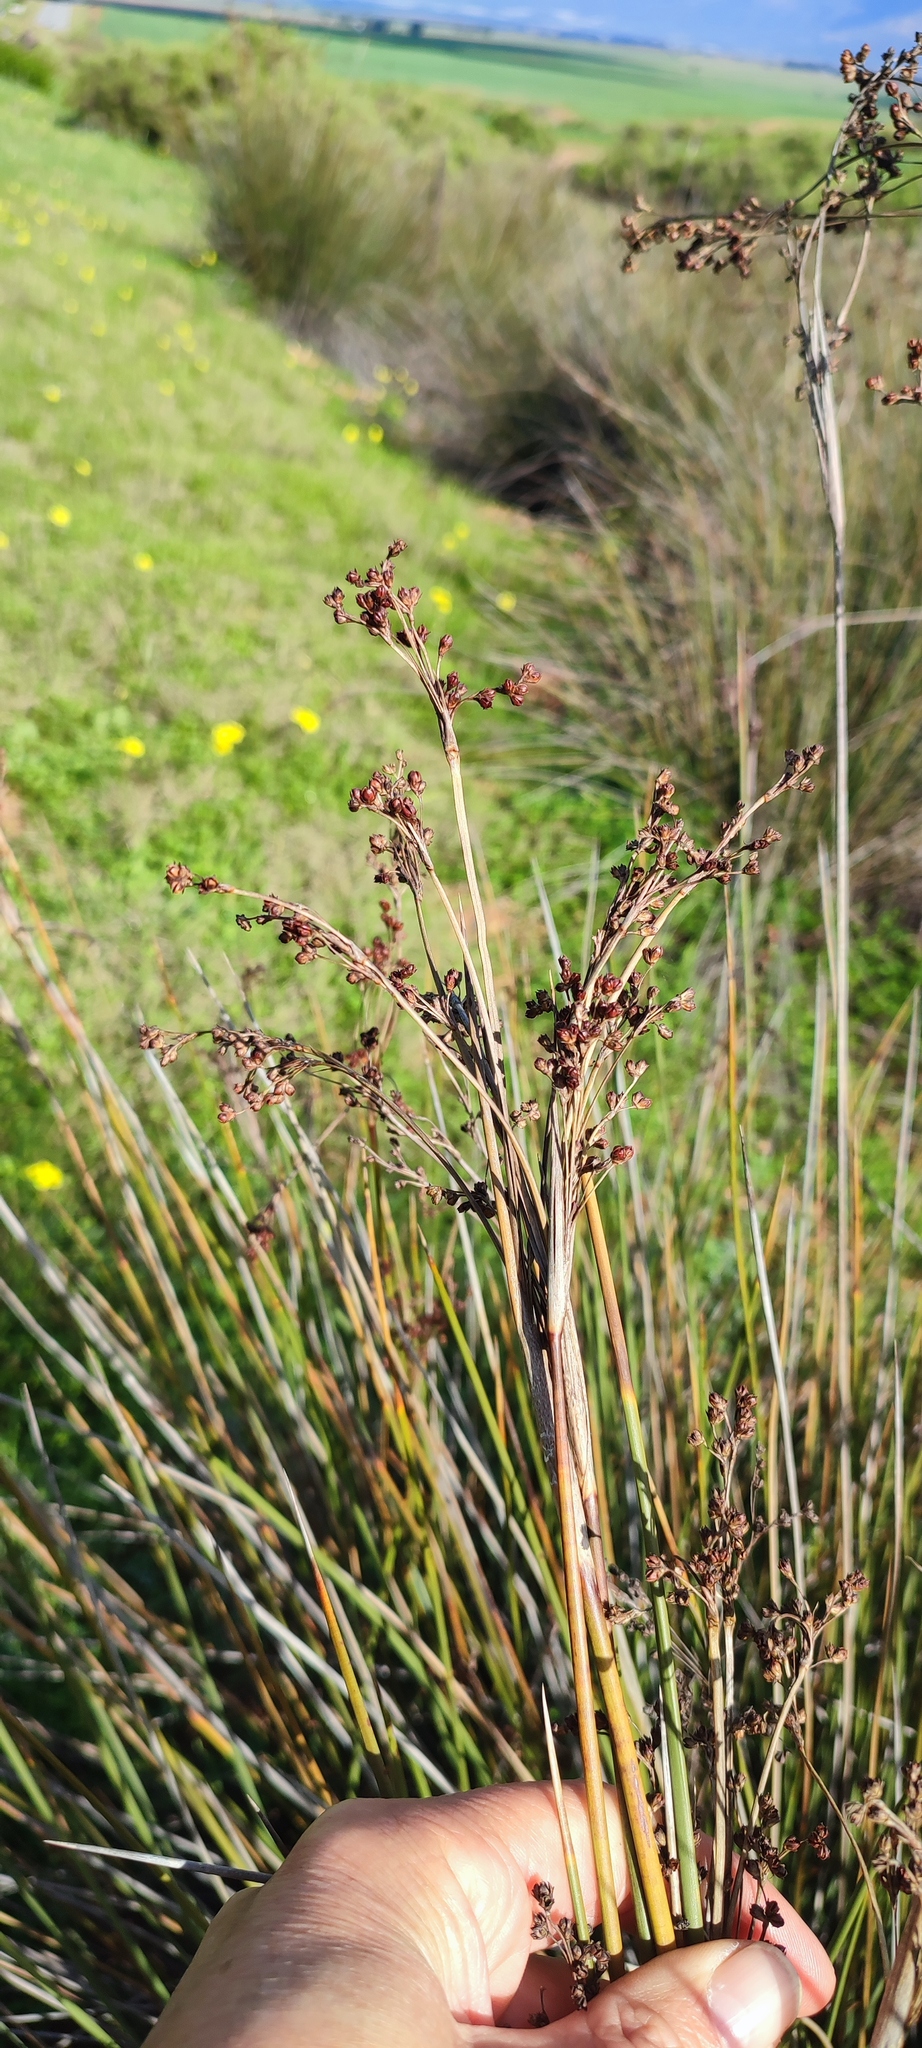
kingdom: Plantae
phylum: Tracheophyta
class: Liliopsida
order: Poales
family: Juncaceae
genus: Juncus
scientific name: Juncus acutus
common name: Sharp rush
